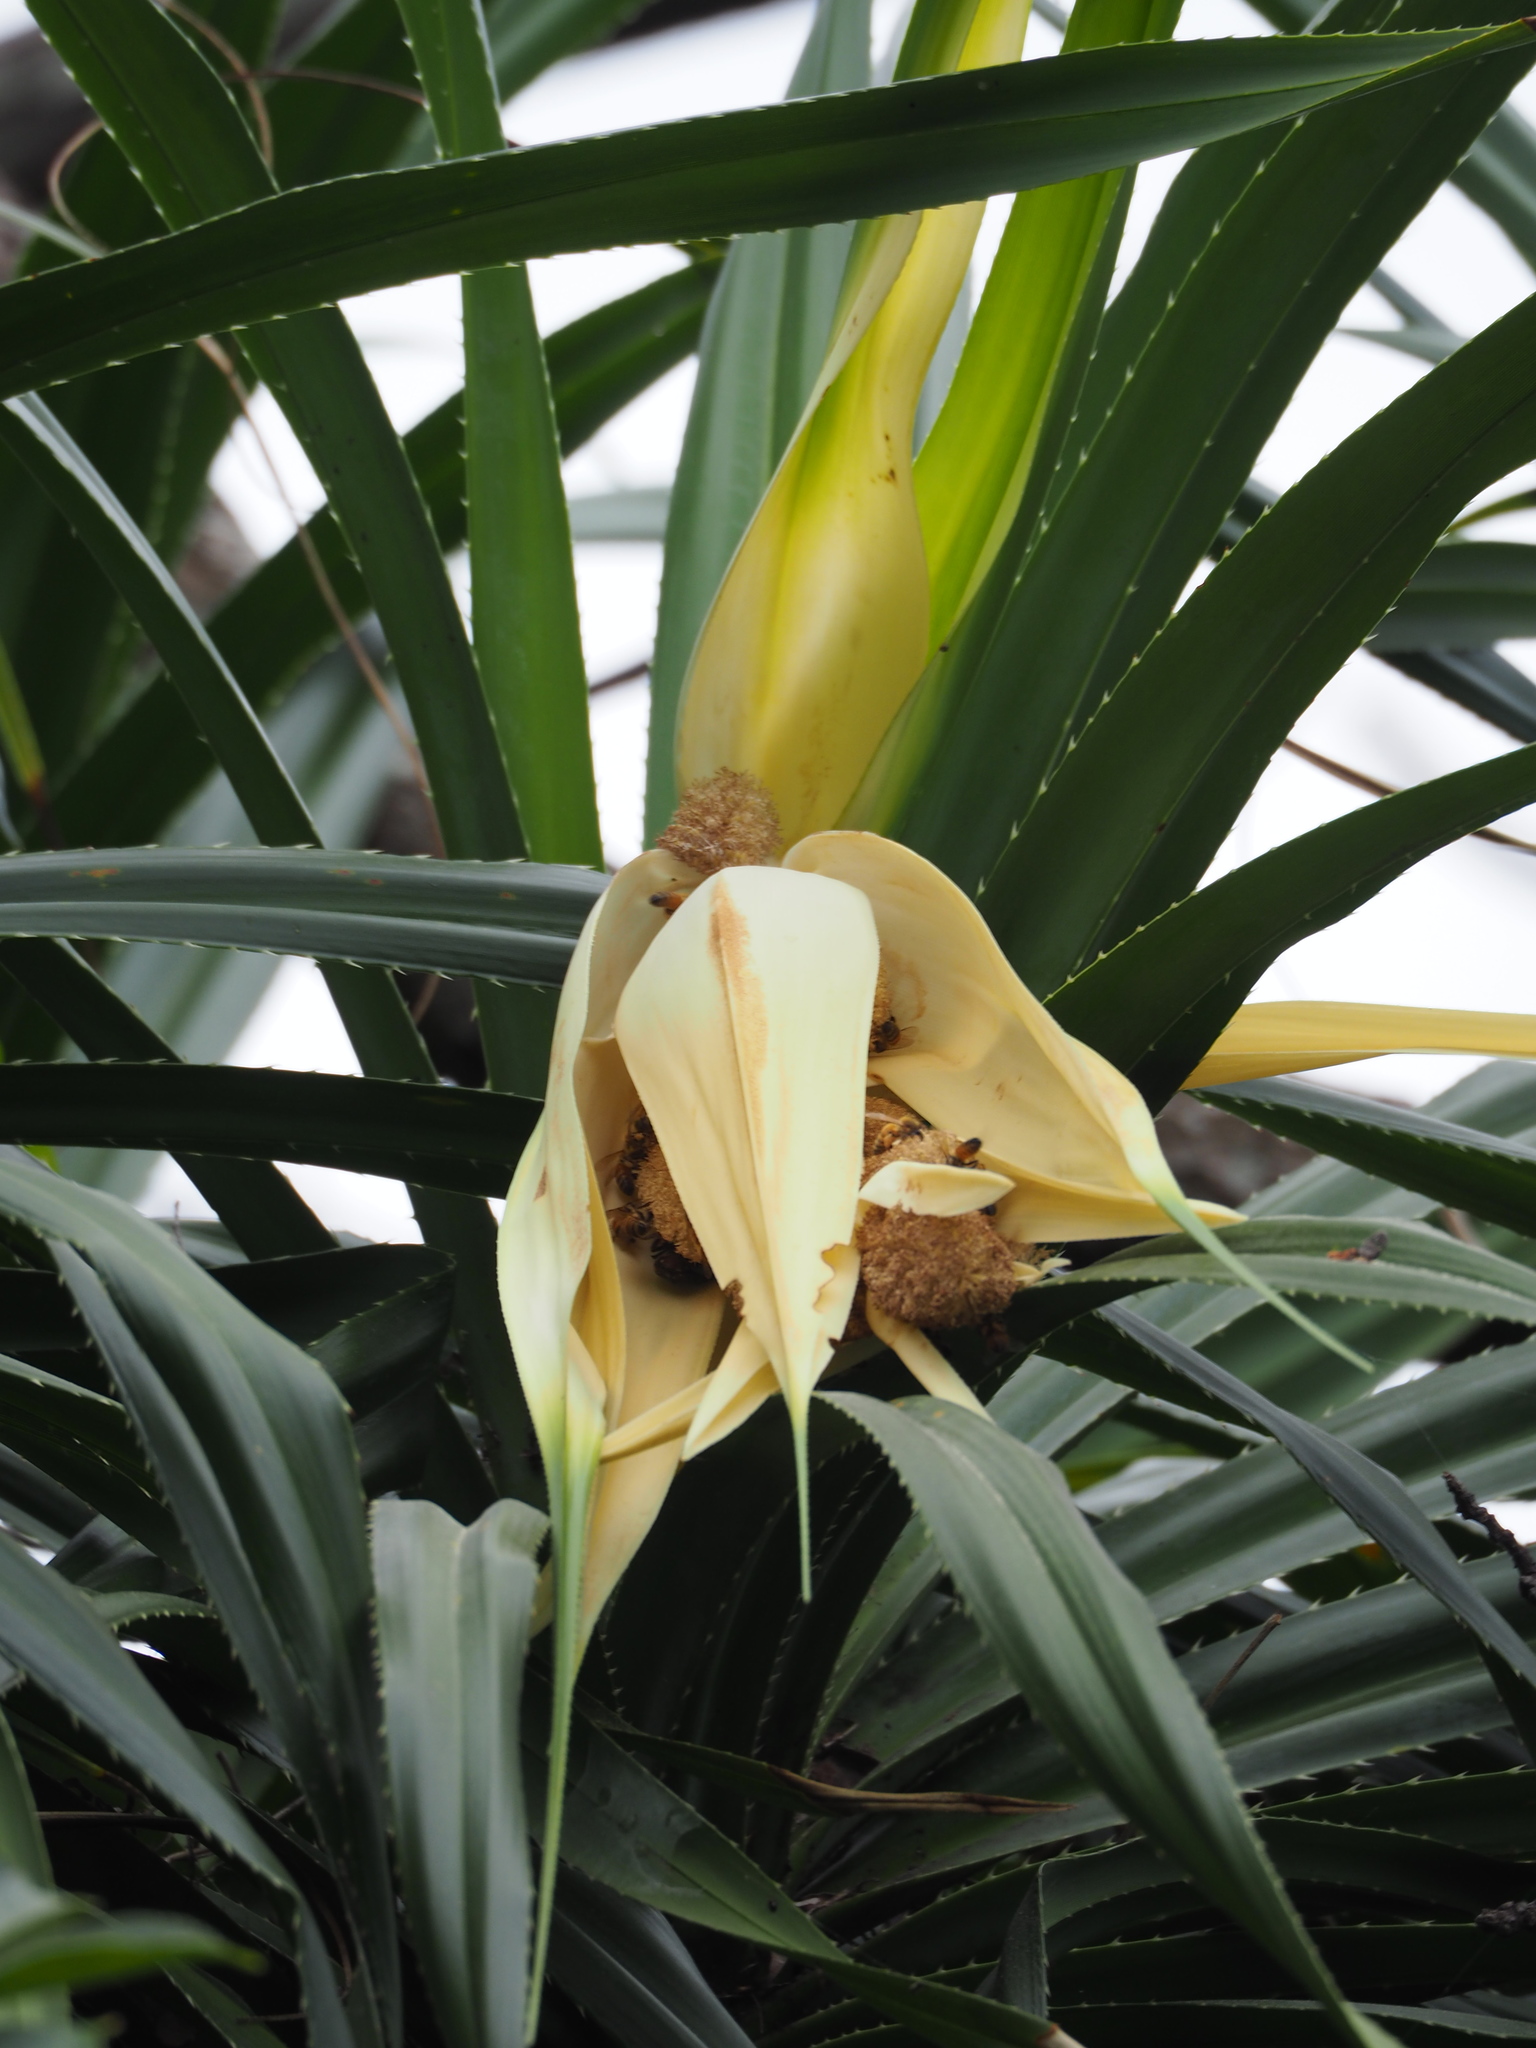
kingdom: Plantae
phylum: Tracheophyta
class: Liliopsida
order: Pandanales
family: Pandanaceae
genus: Pandanus
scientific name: Pandanus odorifer
